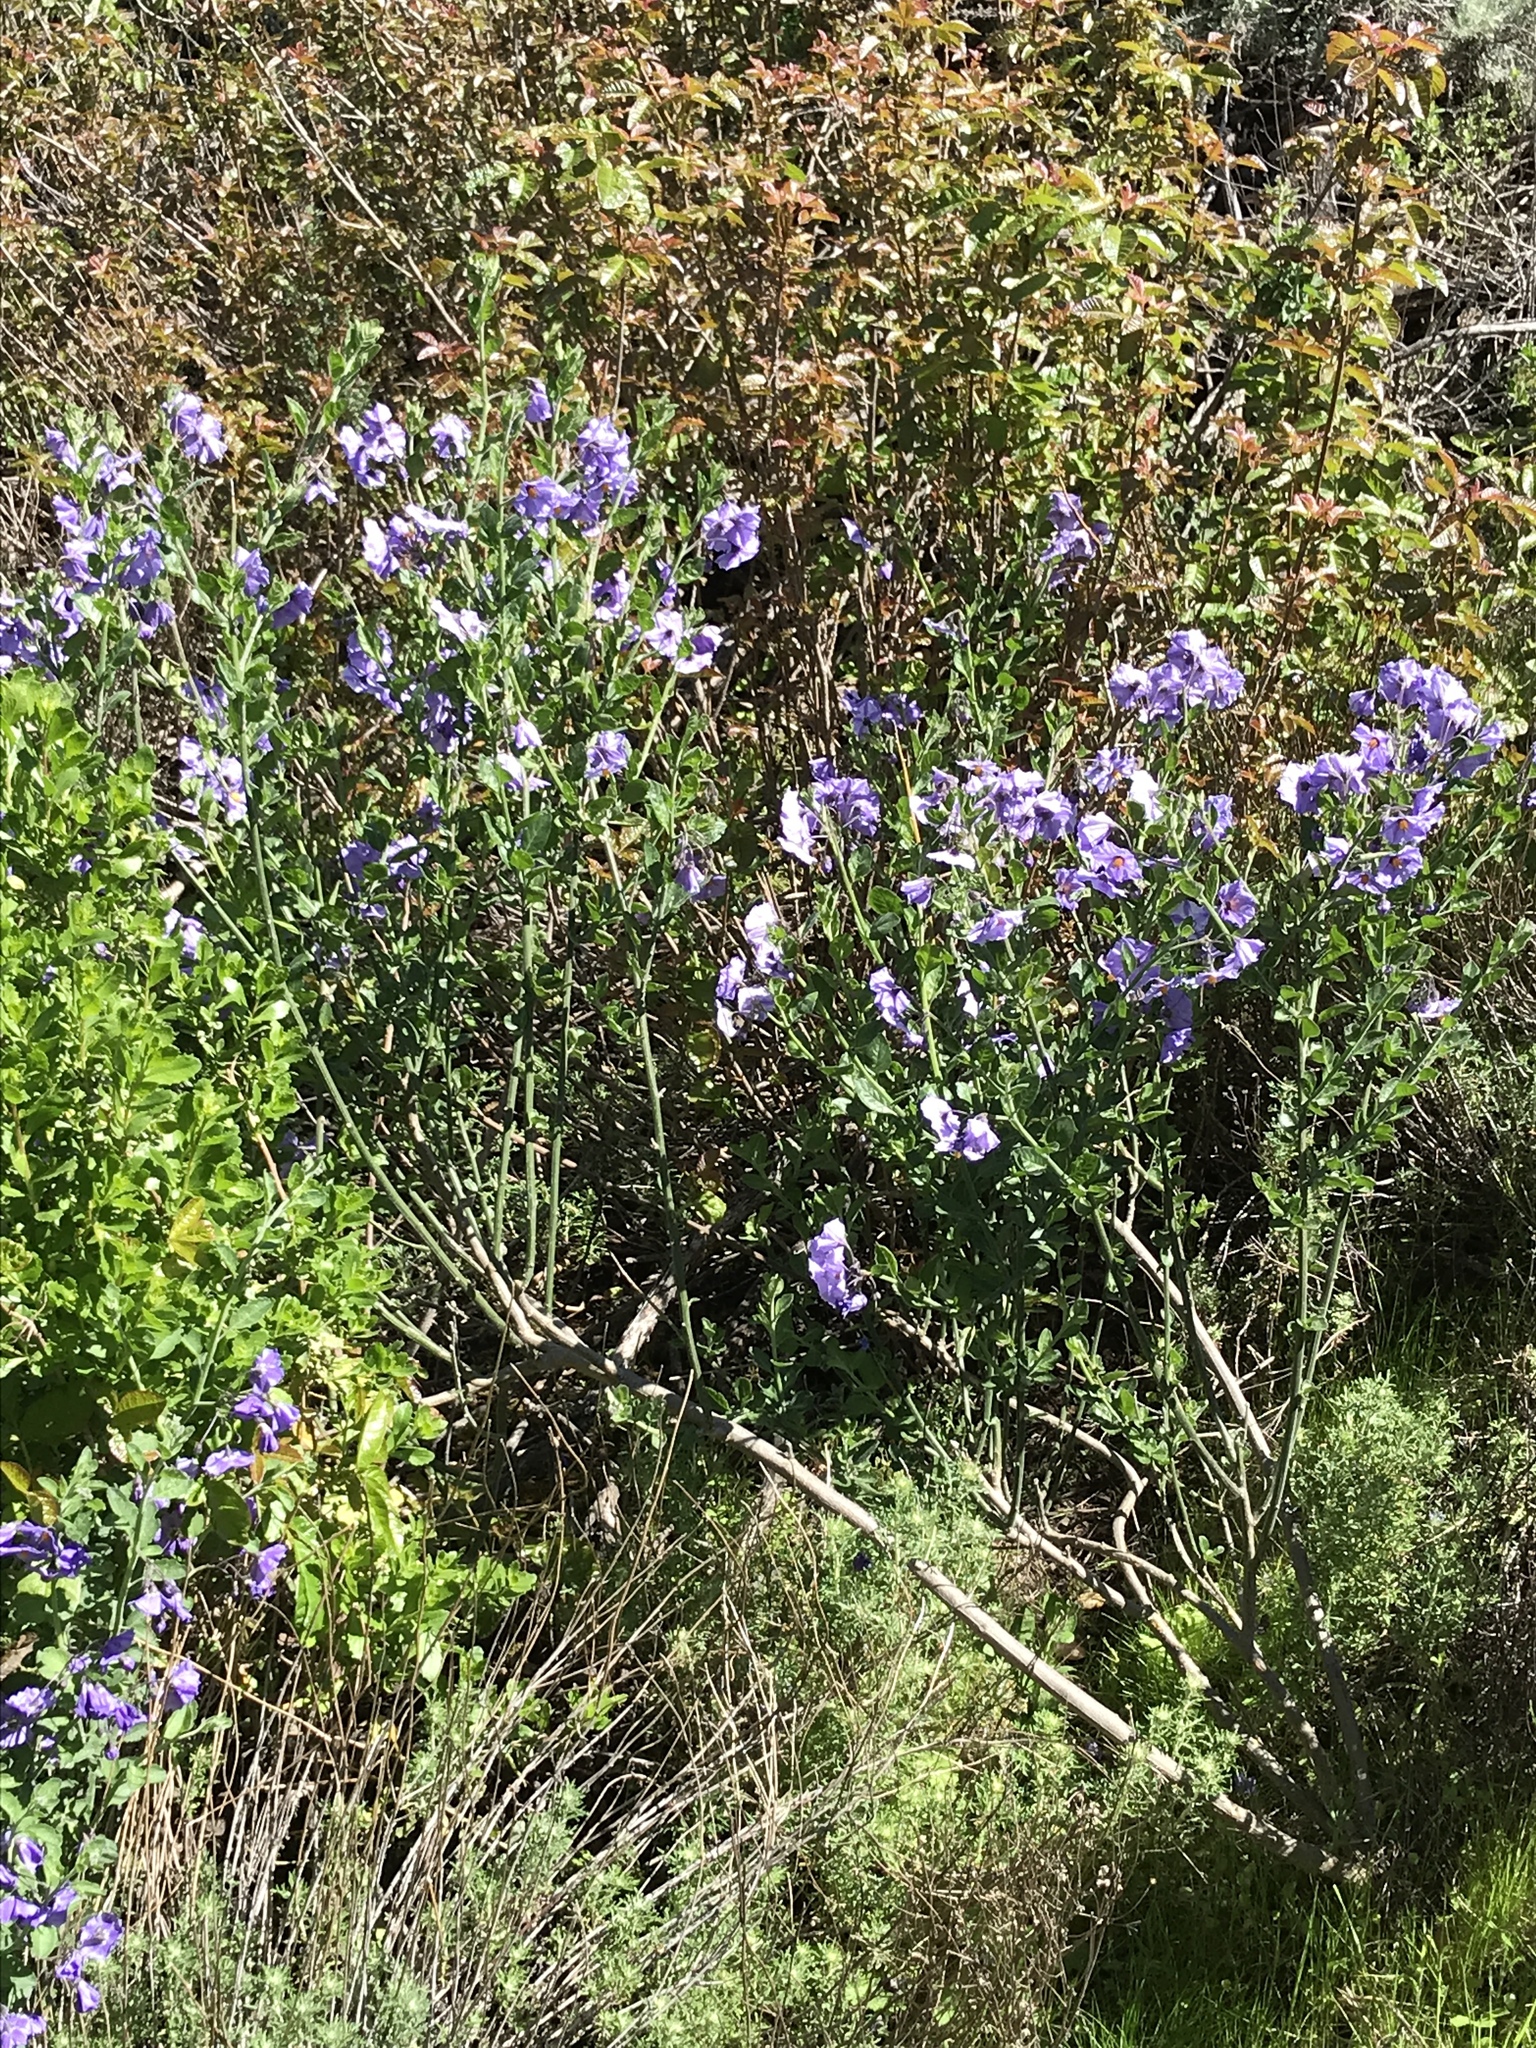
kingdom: Plantae
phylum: Tracheophyta
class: Magnoliopsida
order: Solanales
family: Solanaceae
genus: Solanum
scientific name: Solanum umbelliferum
